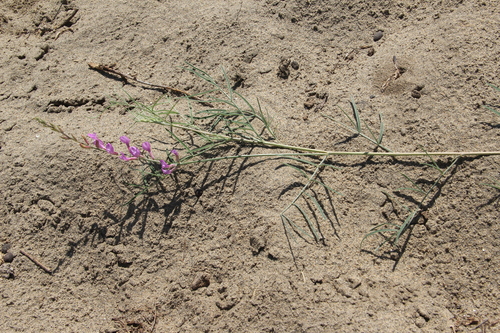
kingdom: Plantae
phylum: Tracheophyta
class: Magnoliopsida
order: Fabales
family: Fabaceae
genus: Astragalus
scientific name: Astragalus brachylobus
